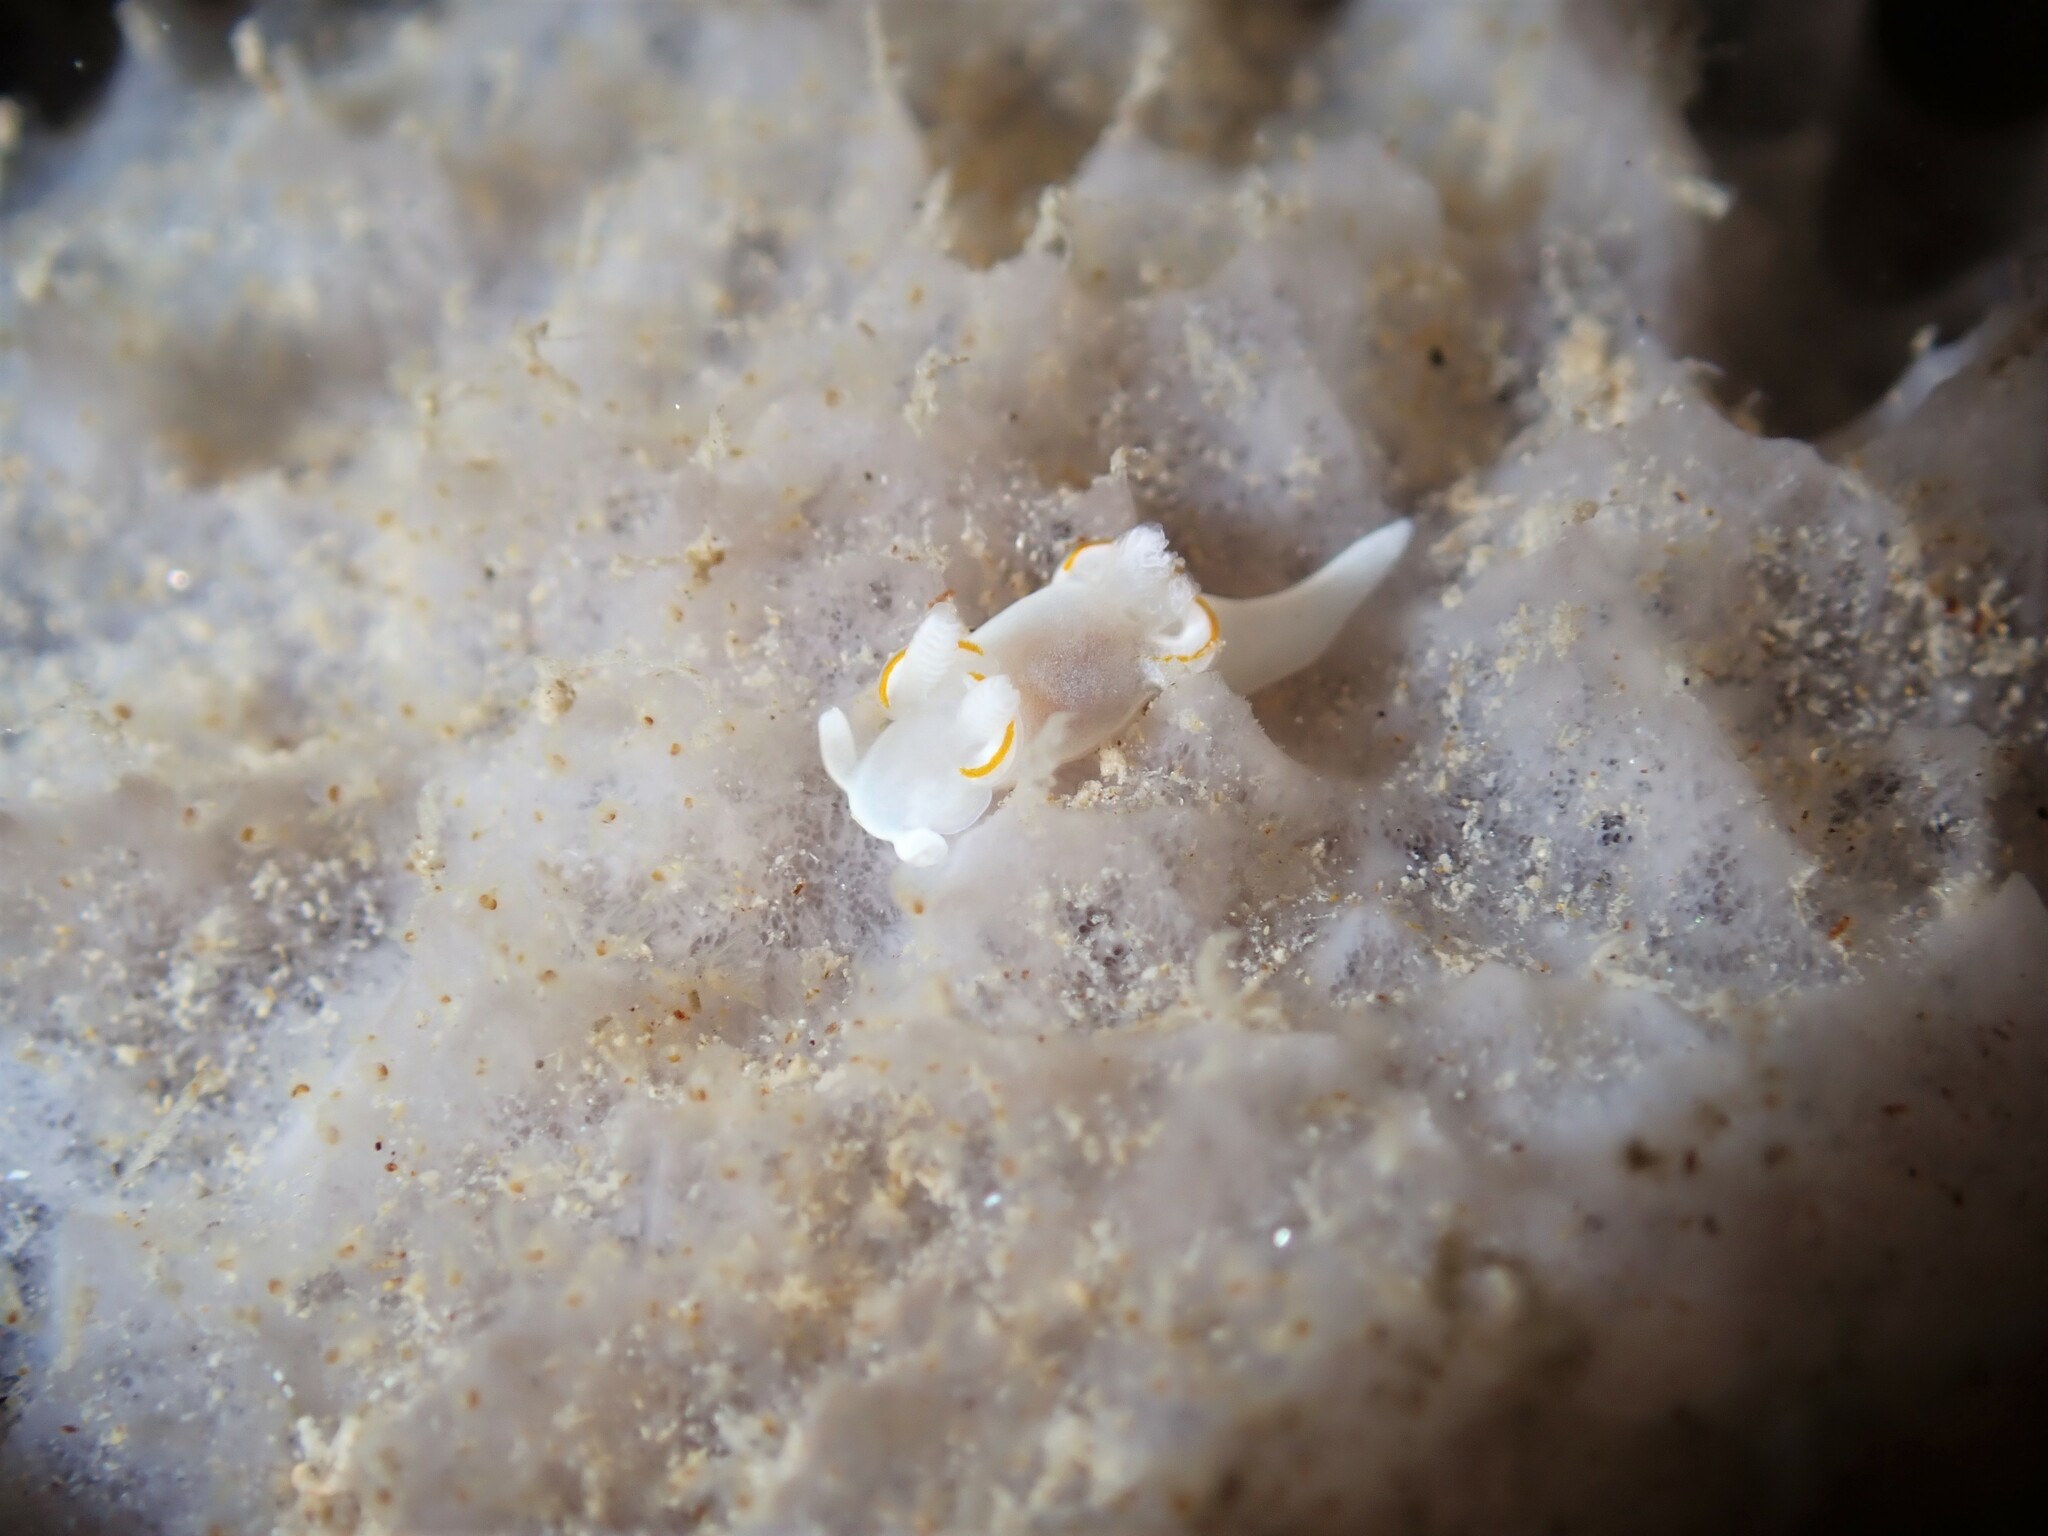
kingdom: Animalia
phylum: Mollusca
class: Gastropoda
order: Nudibranchia
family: Goniodorididae
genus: Trapania
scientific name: Trapania rudmani
